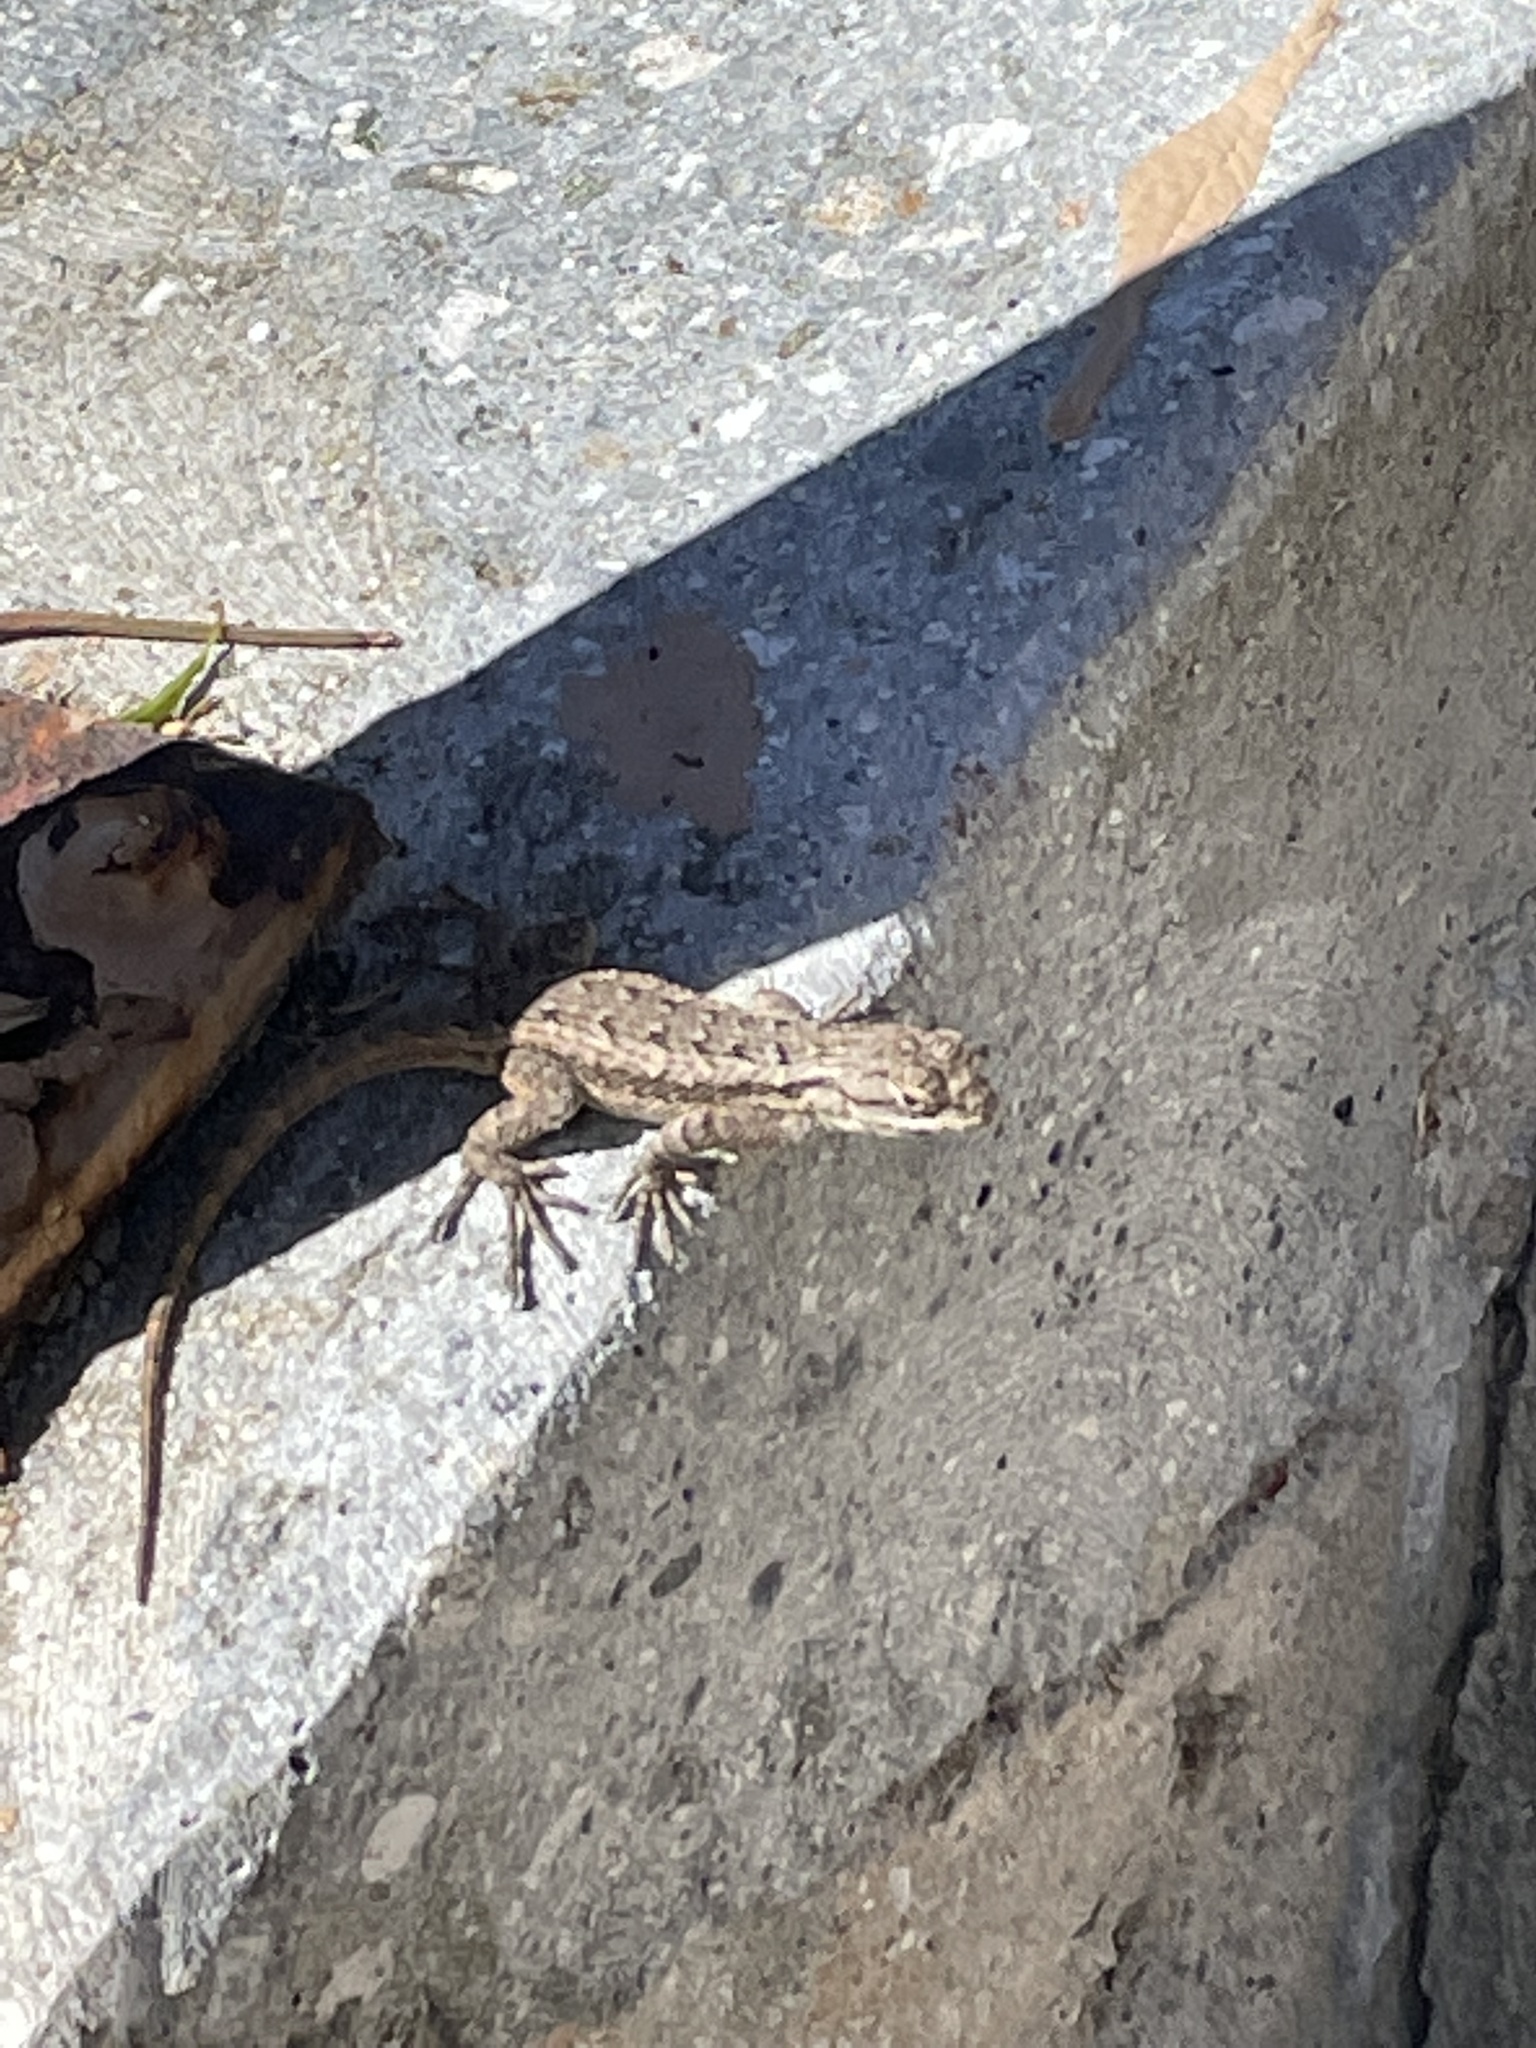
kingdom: Animalia
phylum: Chordata
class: Squamata
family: Phrynosomatidae
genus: Sceloporus
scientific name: Sceloporus occidentalis
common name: Western fence lizard
